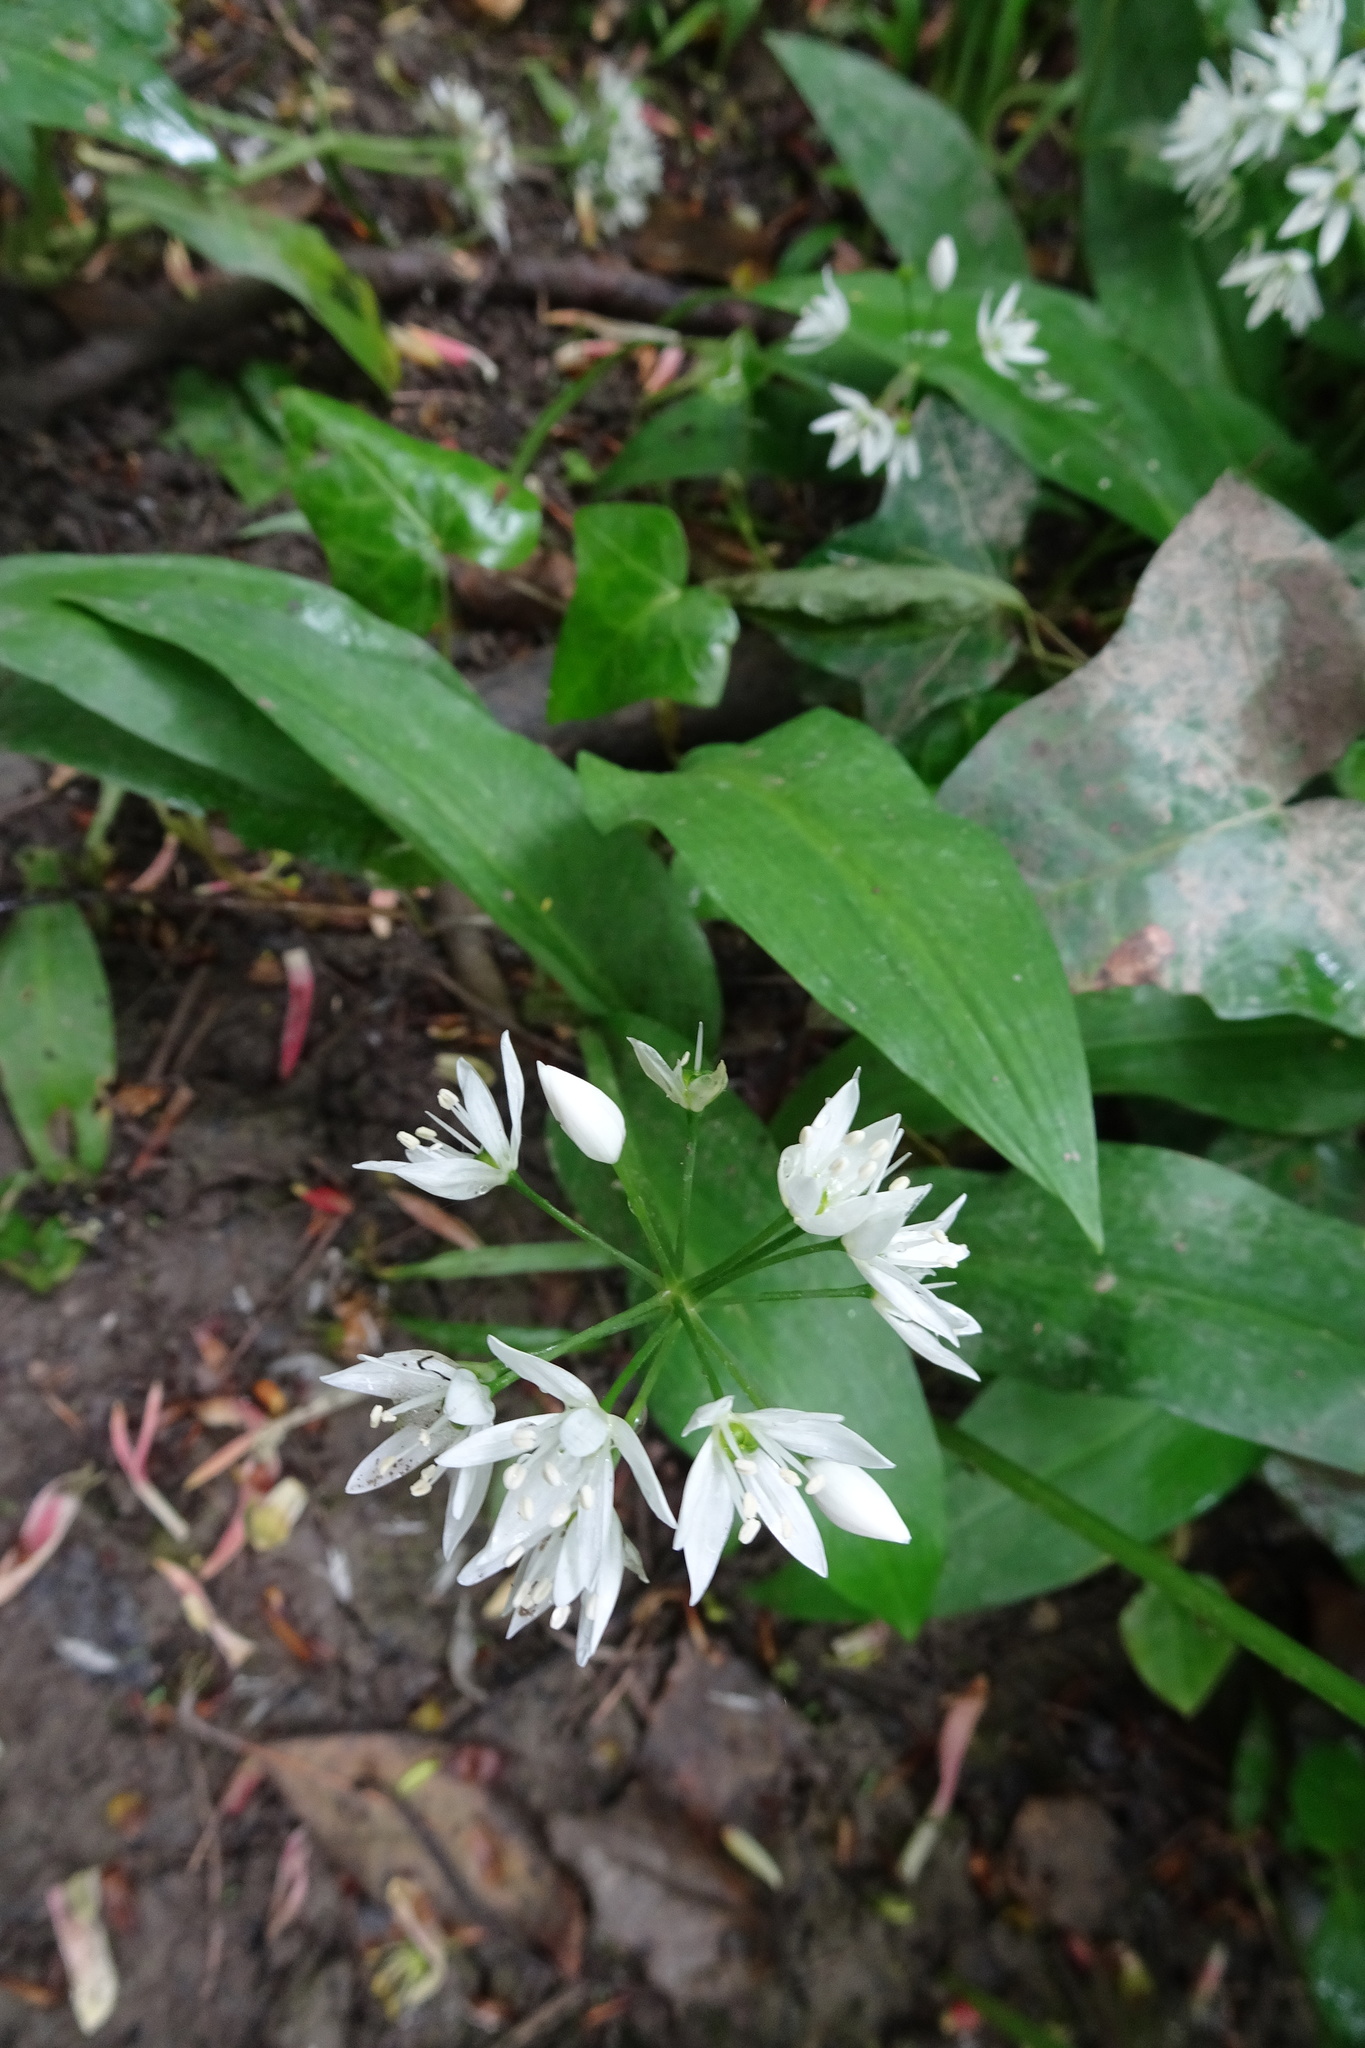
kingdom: Plantae
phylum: Tracheophyta
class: Liliopsida
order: Asparagales
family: Amaryllidaceae
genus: Allium
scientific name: Allium ursinum
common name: Ramsons
